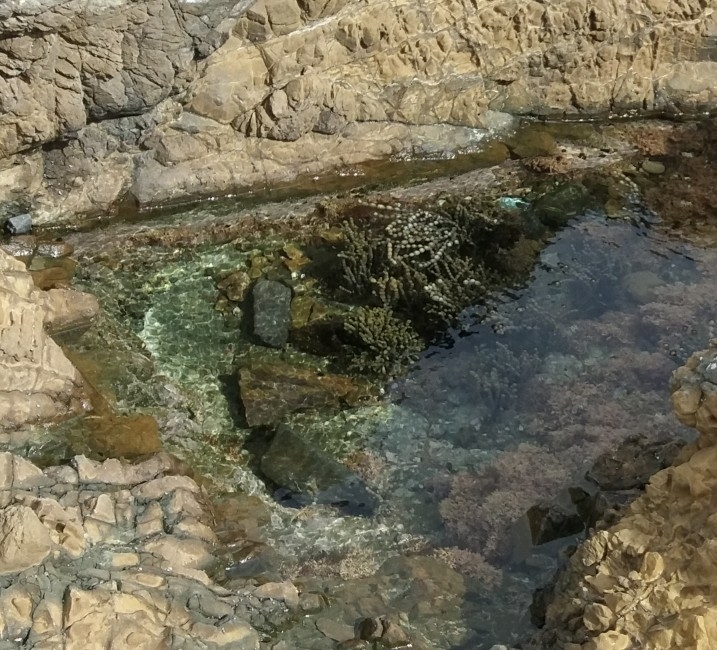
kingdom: Chromista
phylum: Ochrophyta
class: Phaeophyceae
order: Fucales
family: Hormosiraceae
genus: Hormosira
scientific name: Hormosira banksii
